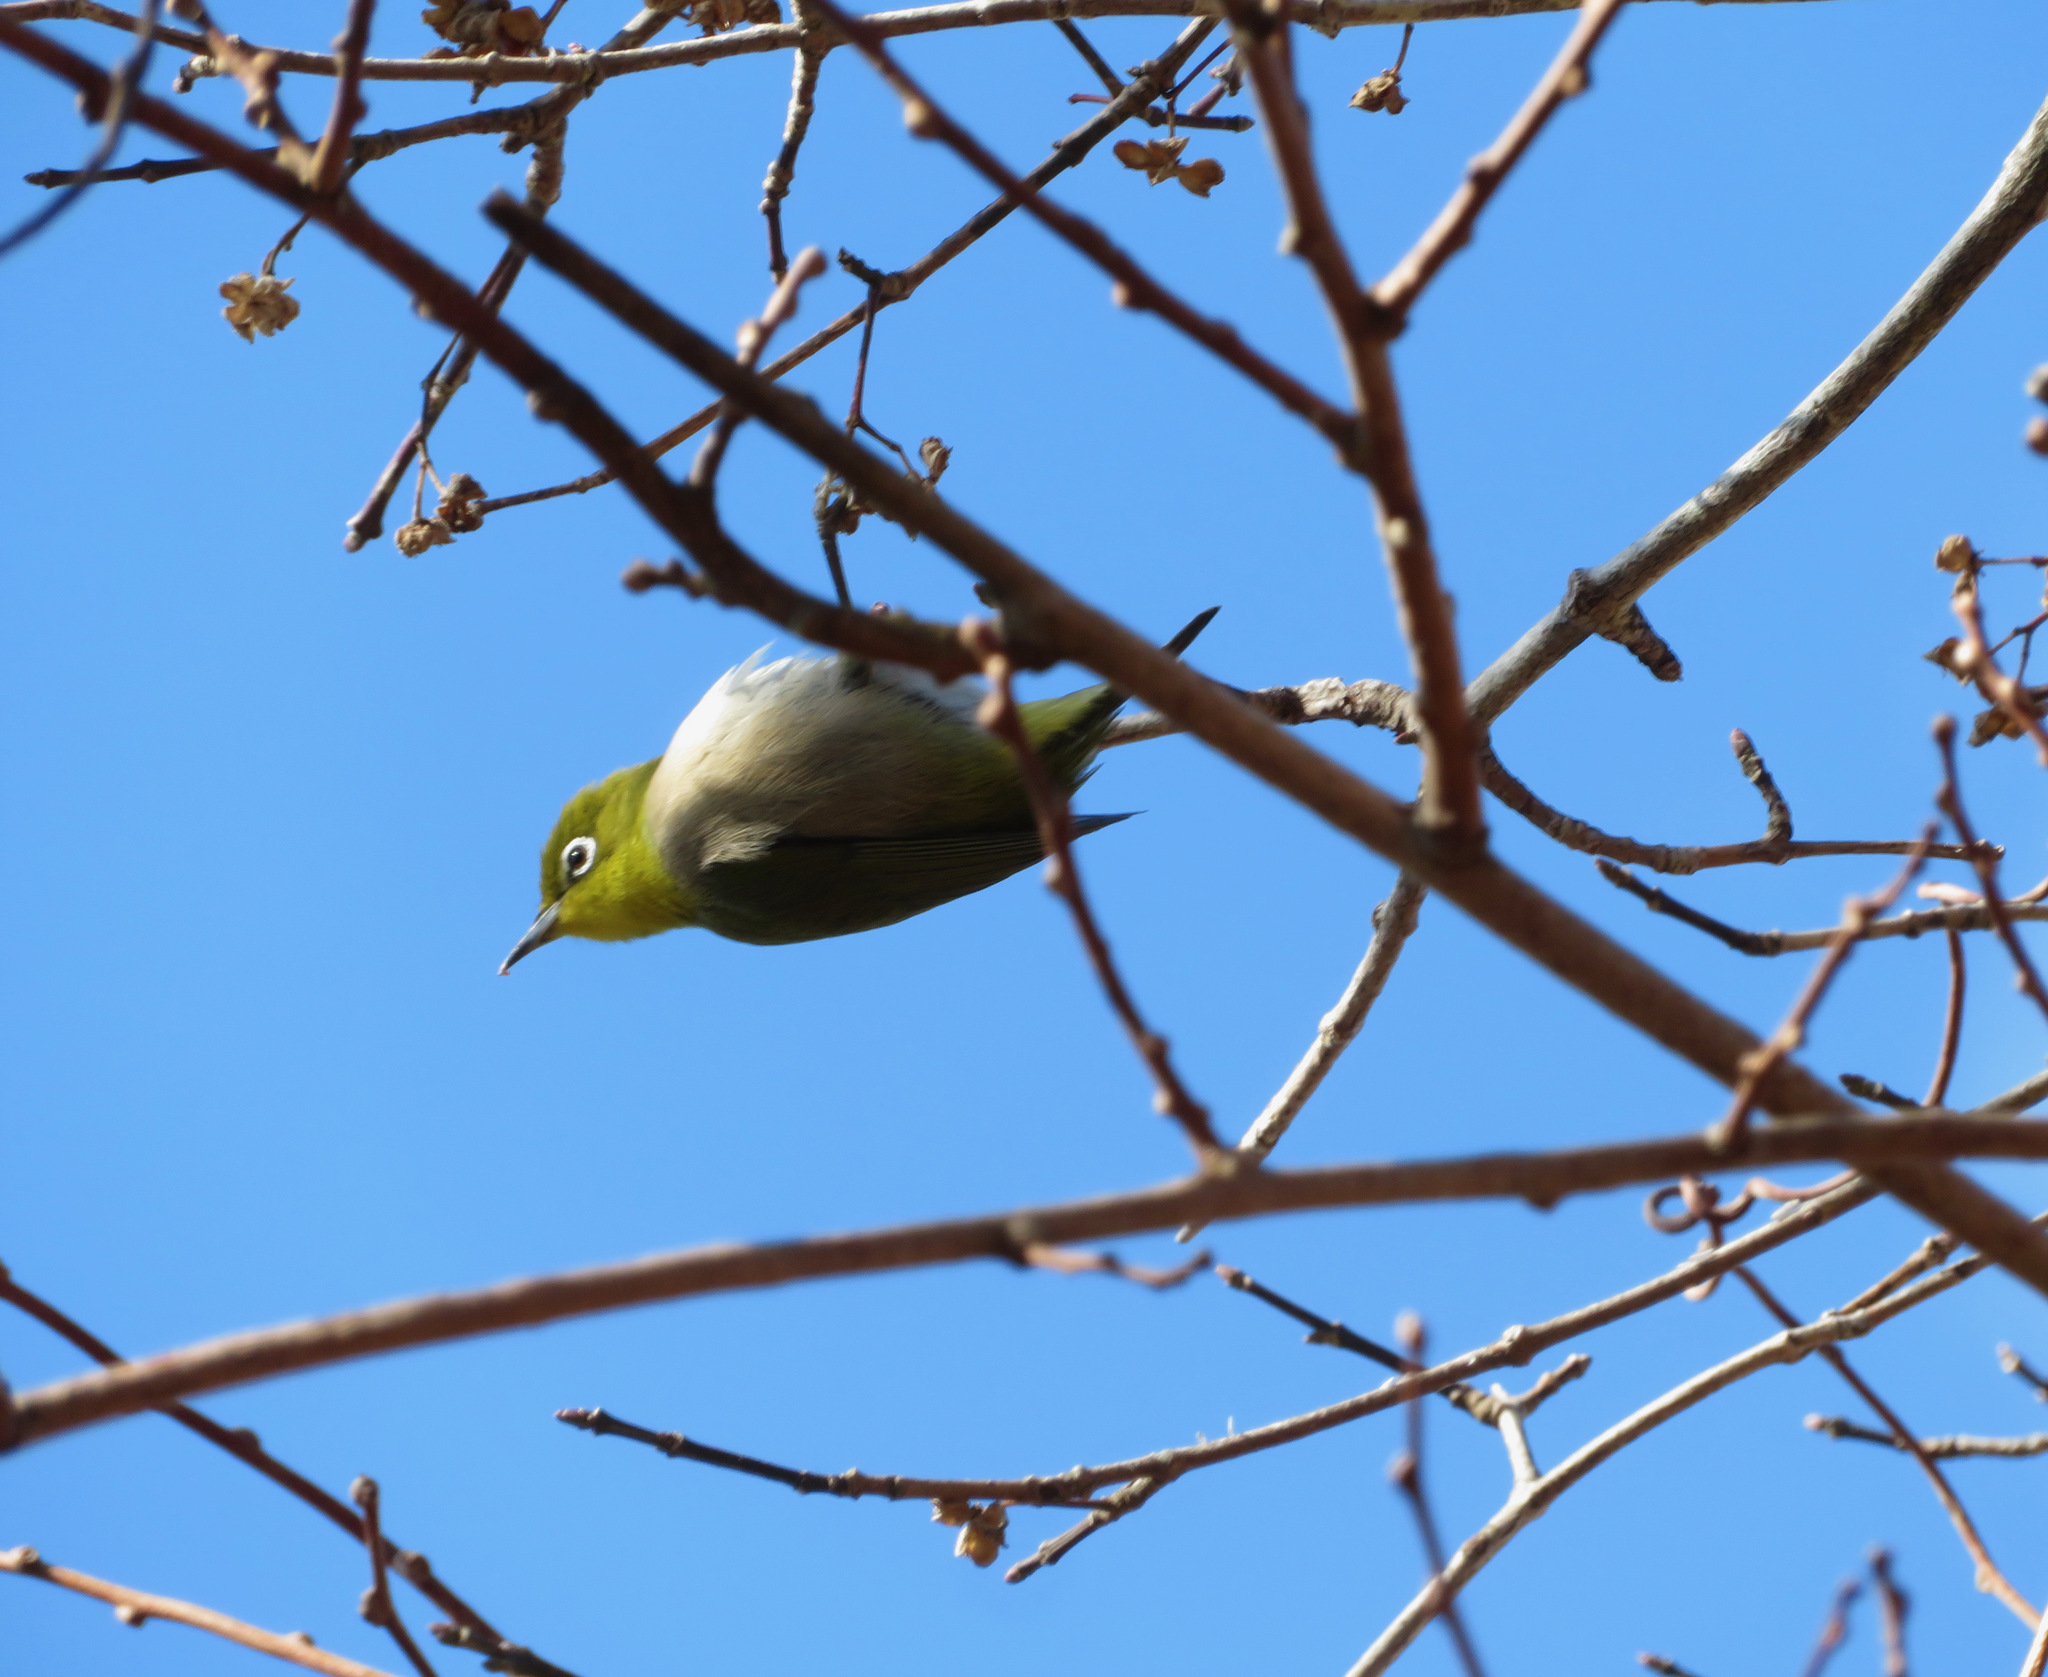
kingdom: Animalia
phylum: Chordata
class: Aves
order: Passeriformes
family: Zosteropidae
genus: Zosterops
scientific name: Zosterops japonicus
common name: Japanese white-eye
